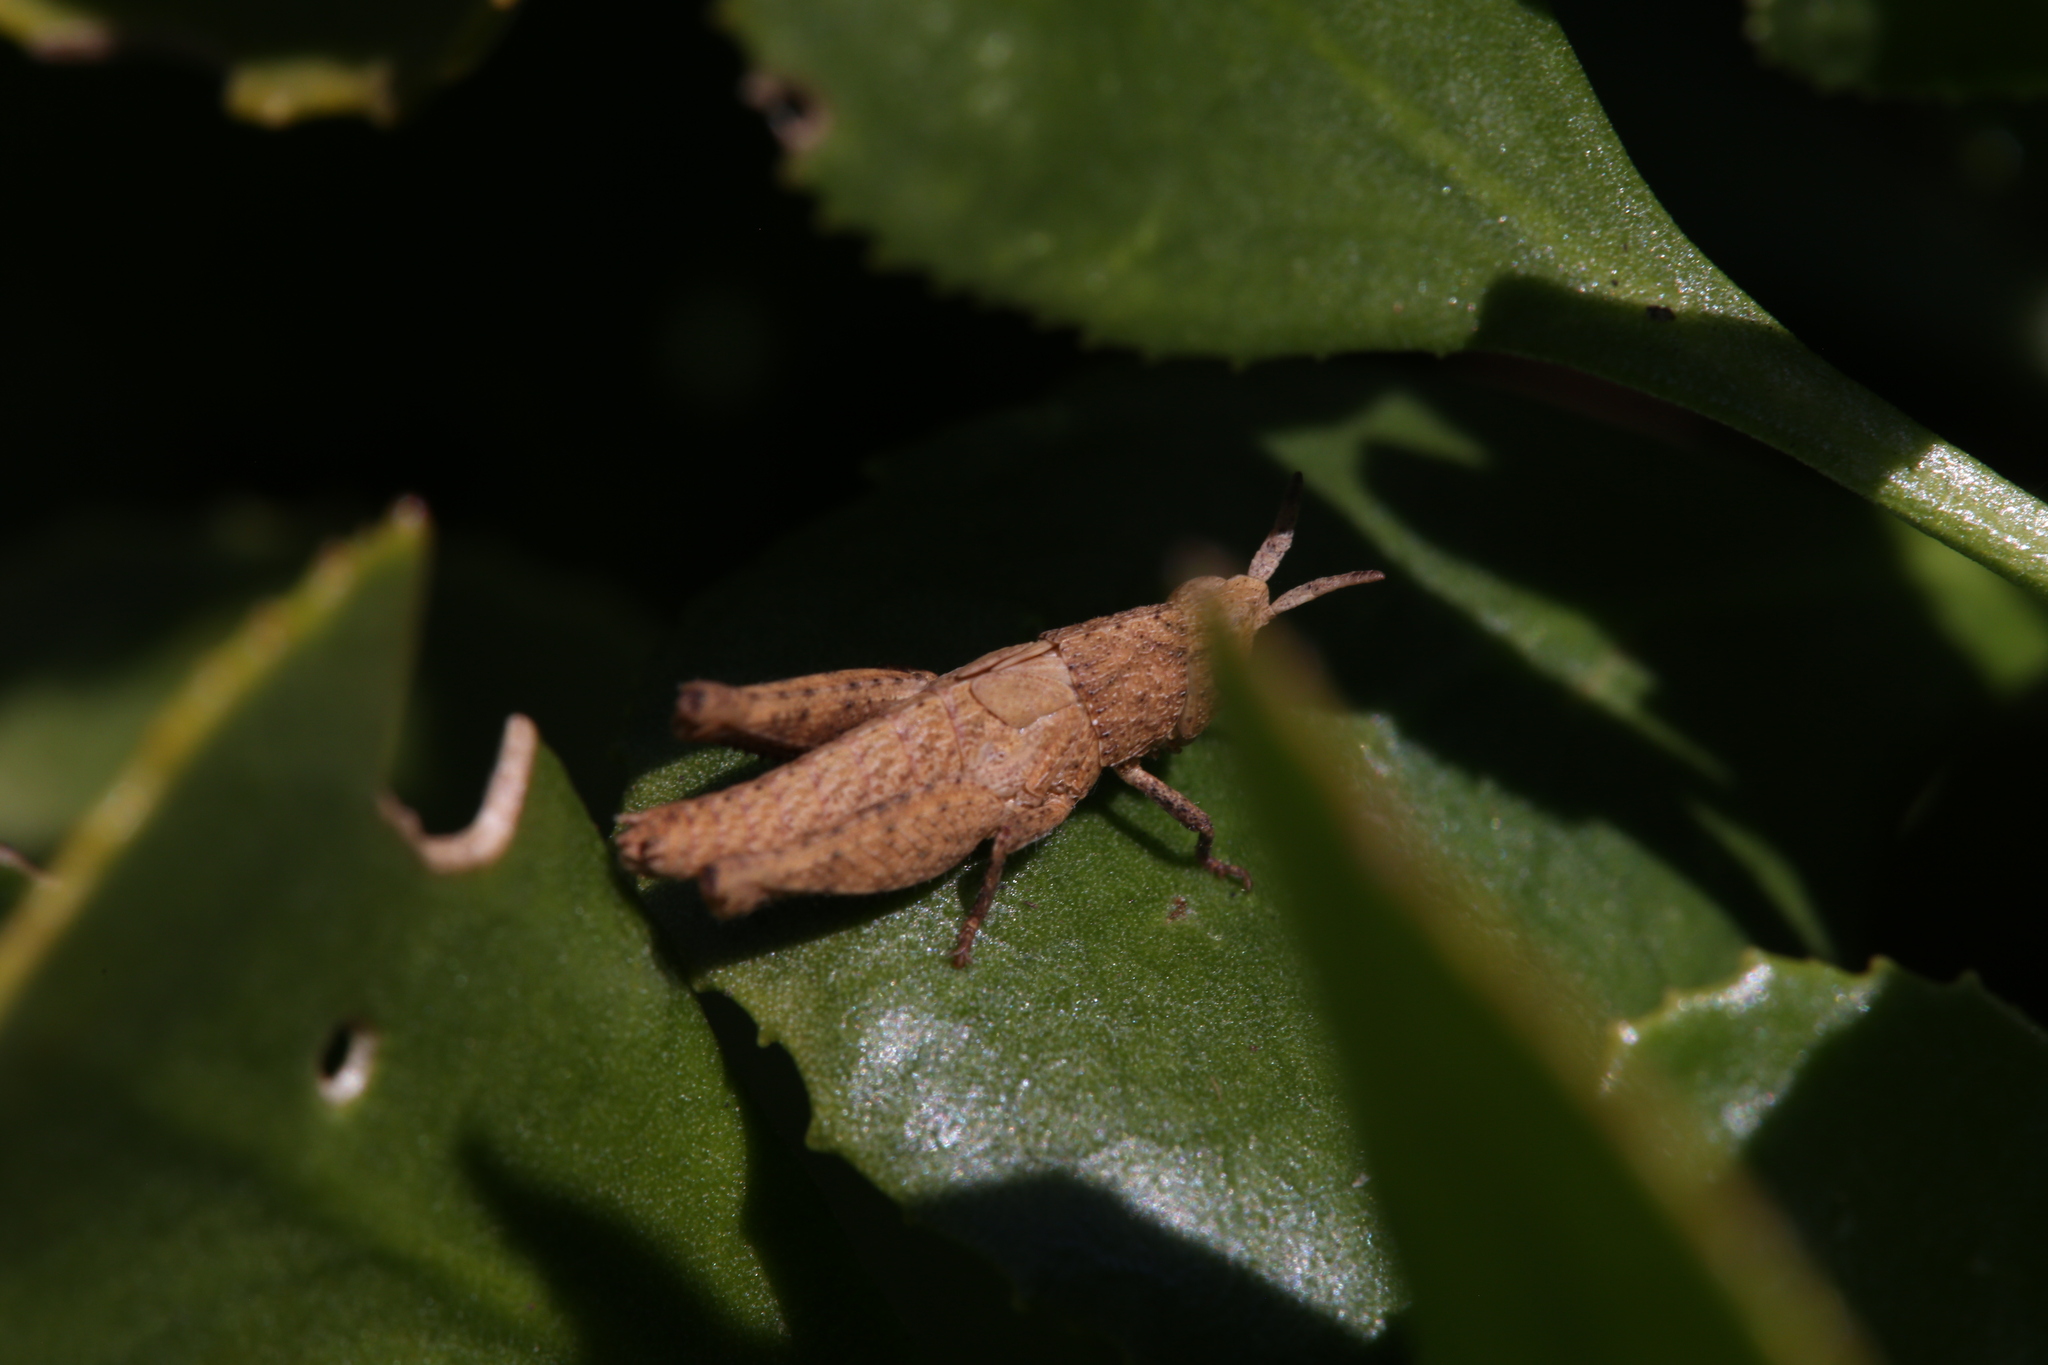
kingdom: Animalia
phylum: Arthropoda
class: Insecta
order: Orthoptera
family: Acrididae
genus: Goniaea
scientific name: Goniaea opomaloides
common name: Mimetic gumleaf grasshopper
